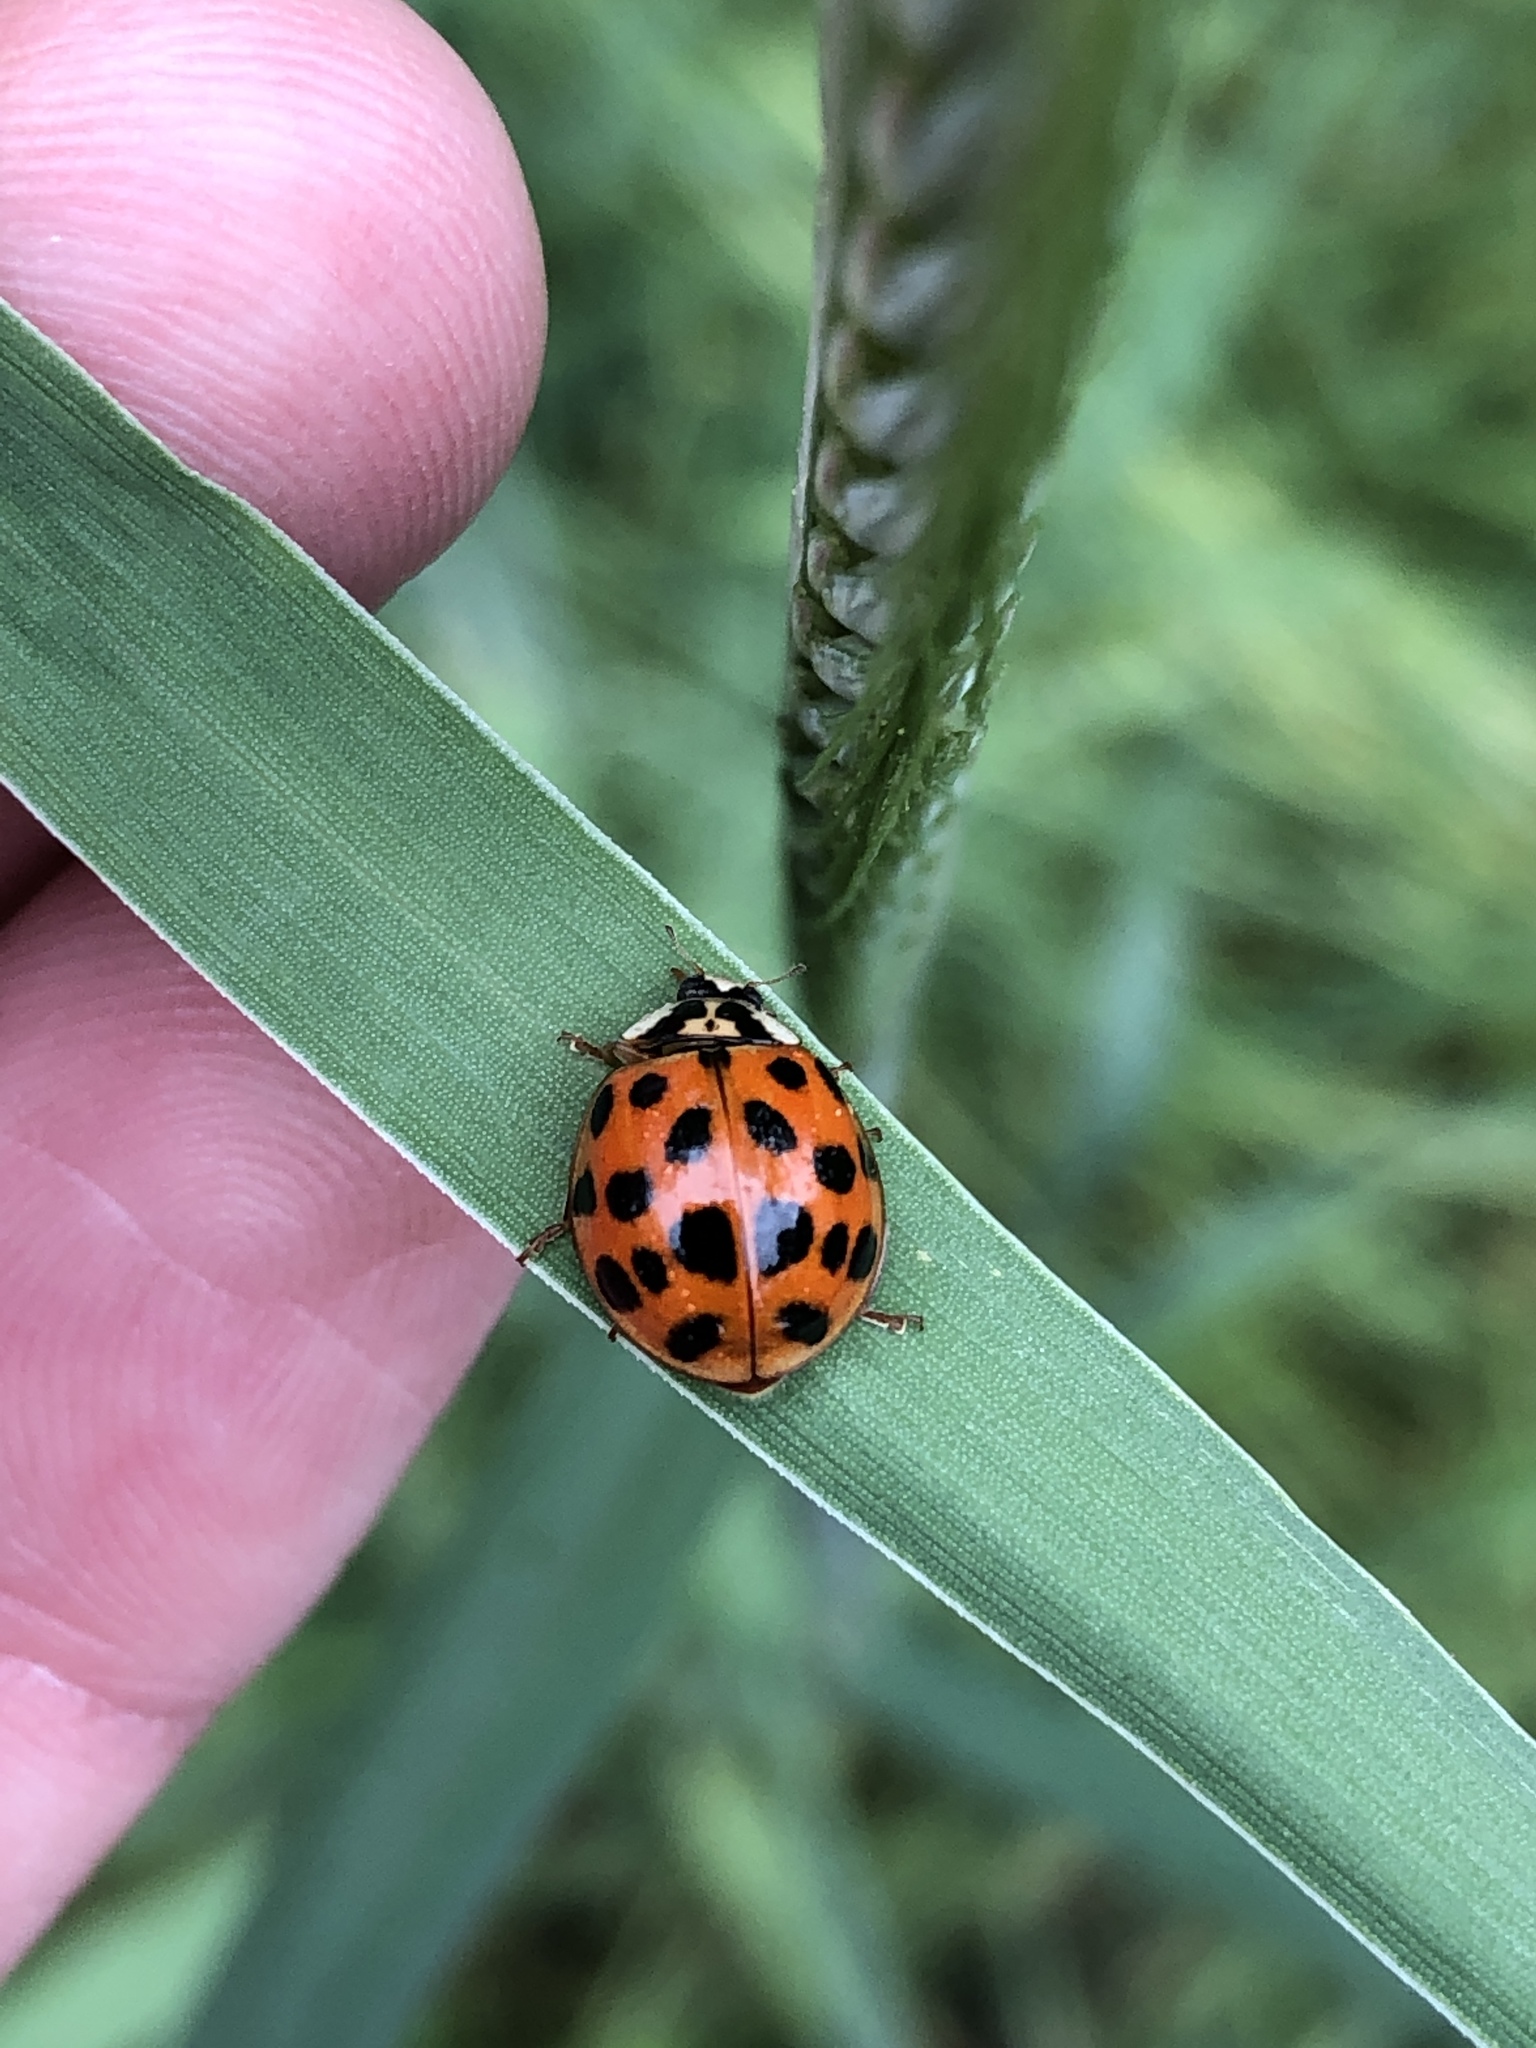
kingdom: Animalia
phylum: Arthropoda
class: Insecta
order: Coleoptera
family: Coccinellidae
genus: Harmonia
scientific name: Harmonia axyridis
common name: Harlequin ladybird
